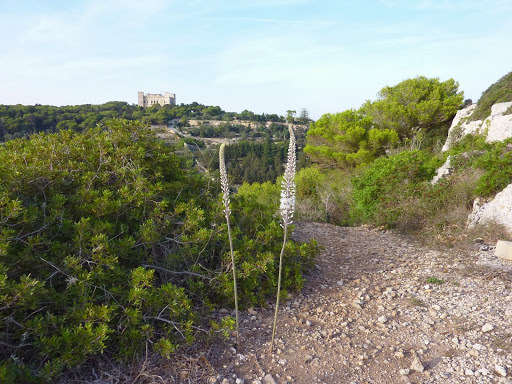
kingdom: Plantae
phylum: Tracheophyta
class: Liliopsida
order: Asparagales
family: Asparagaceae
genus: Drimia
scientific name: Drimia pancration
